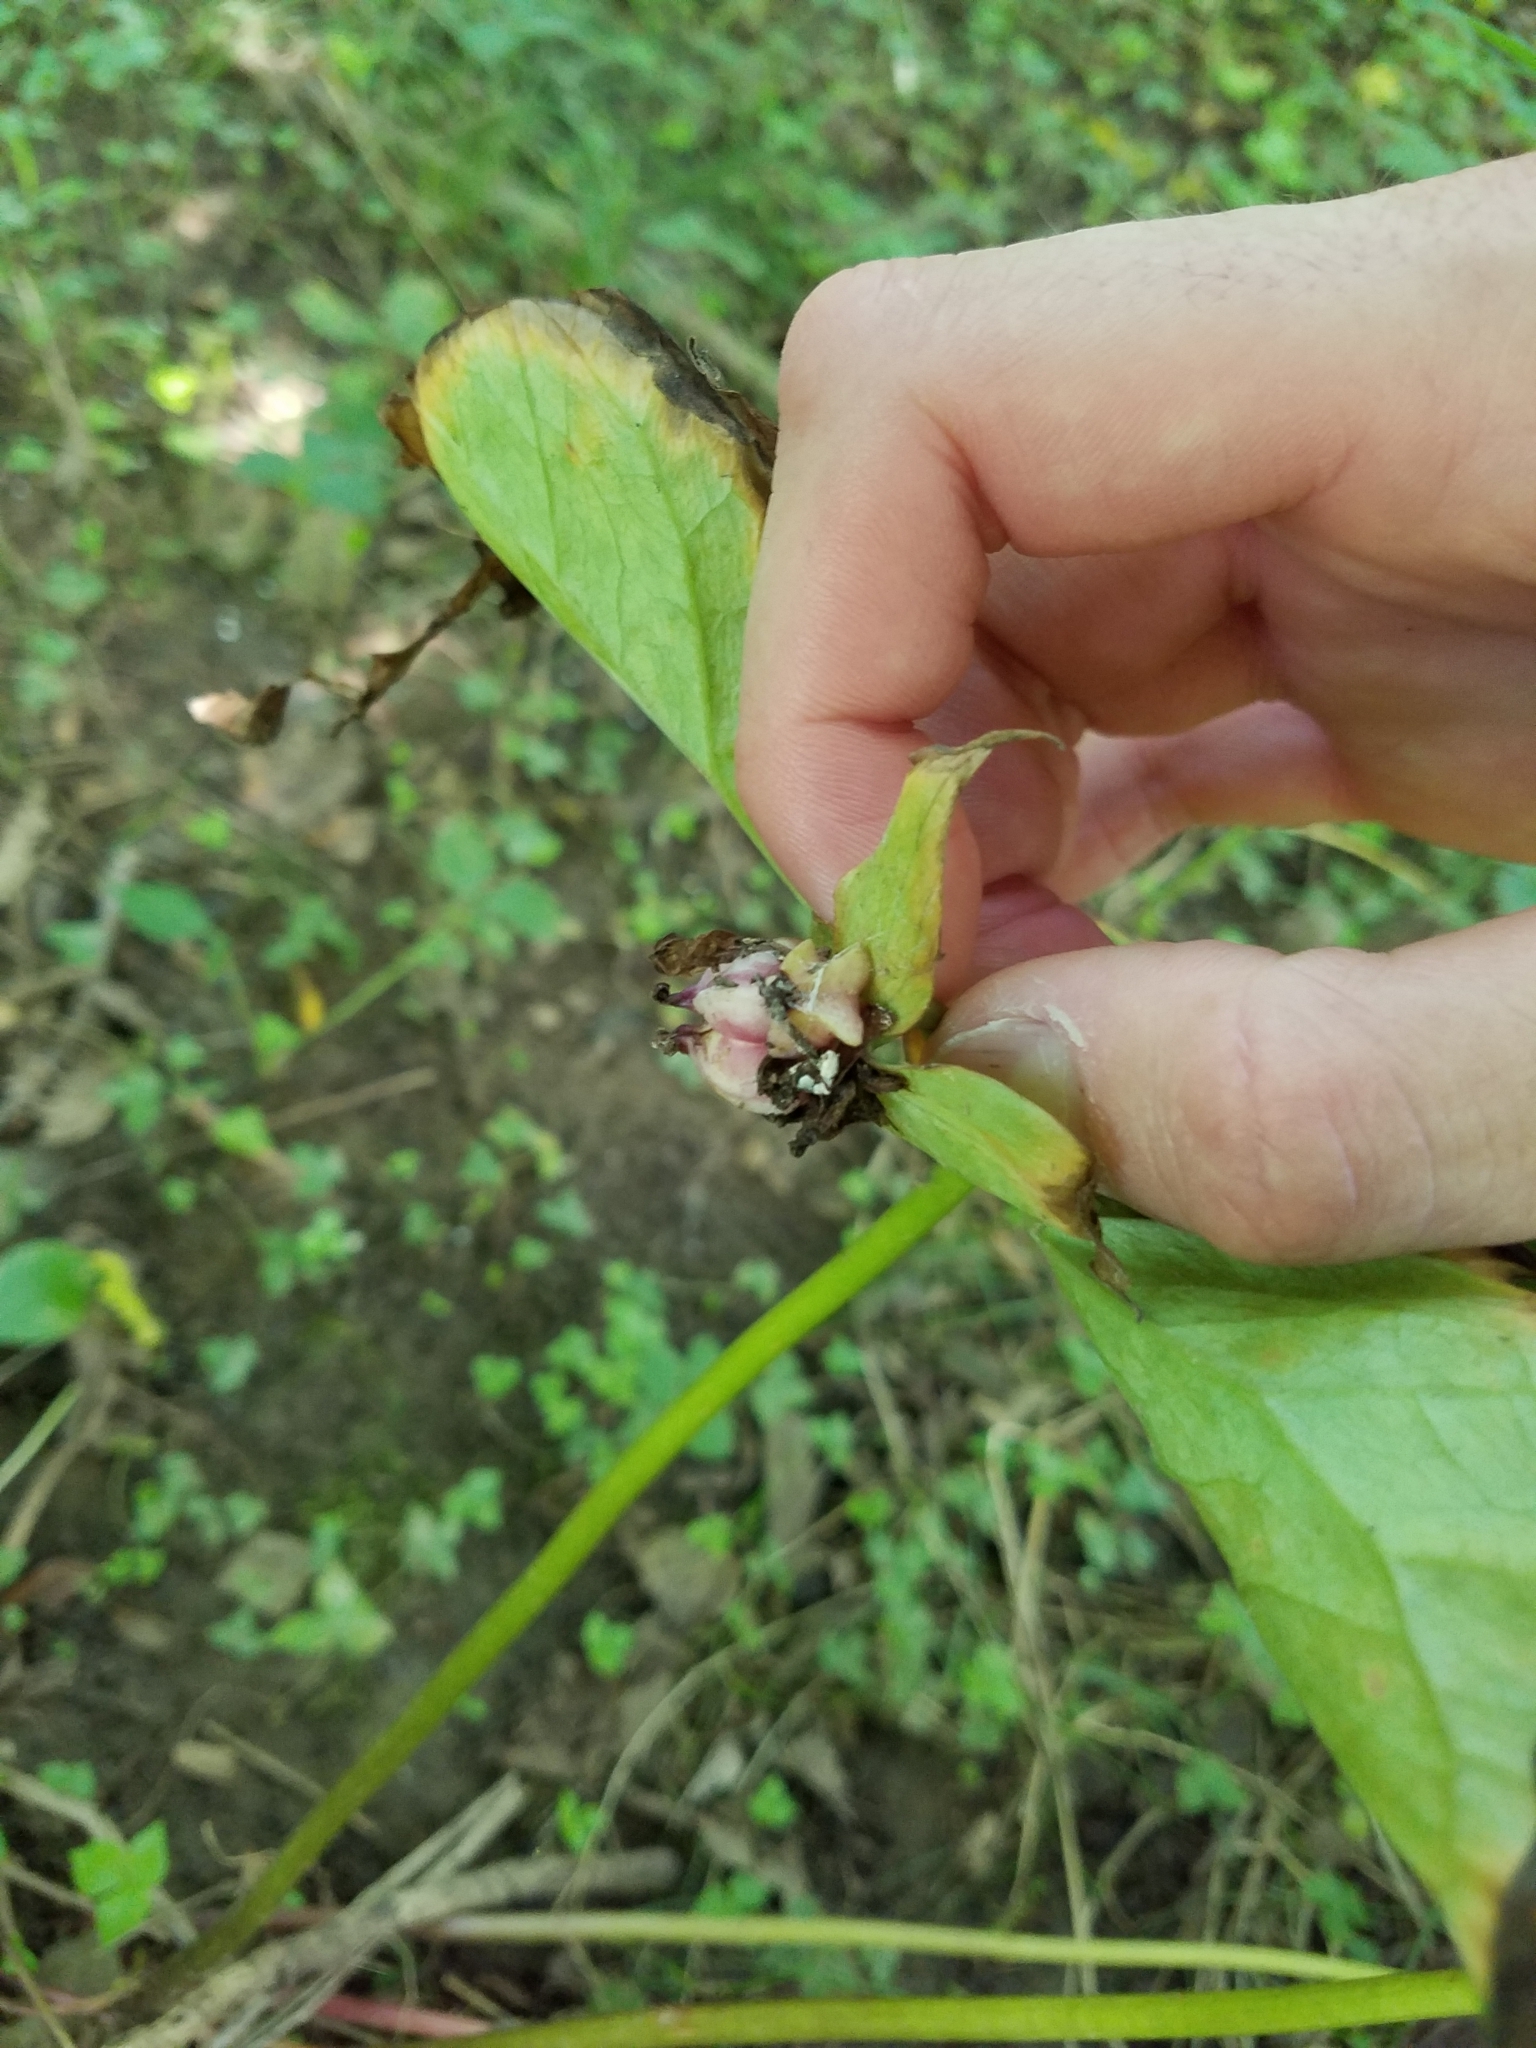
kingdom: Plantae
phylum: Tracheophyta
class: Liliopsida
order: Liliales
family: Melanthiaceae
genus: Trillium
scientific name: Trillium cernuum
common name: Nodding trillium
